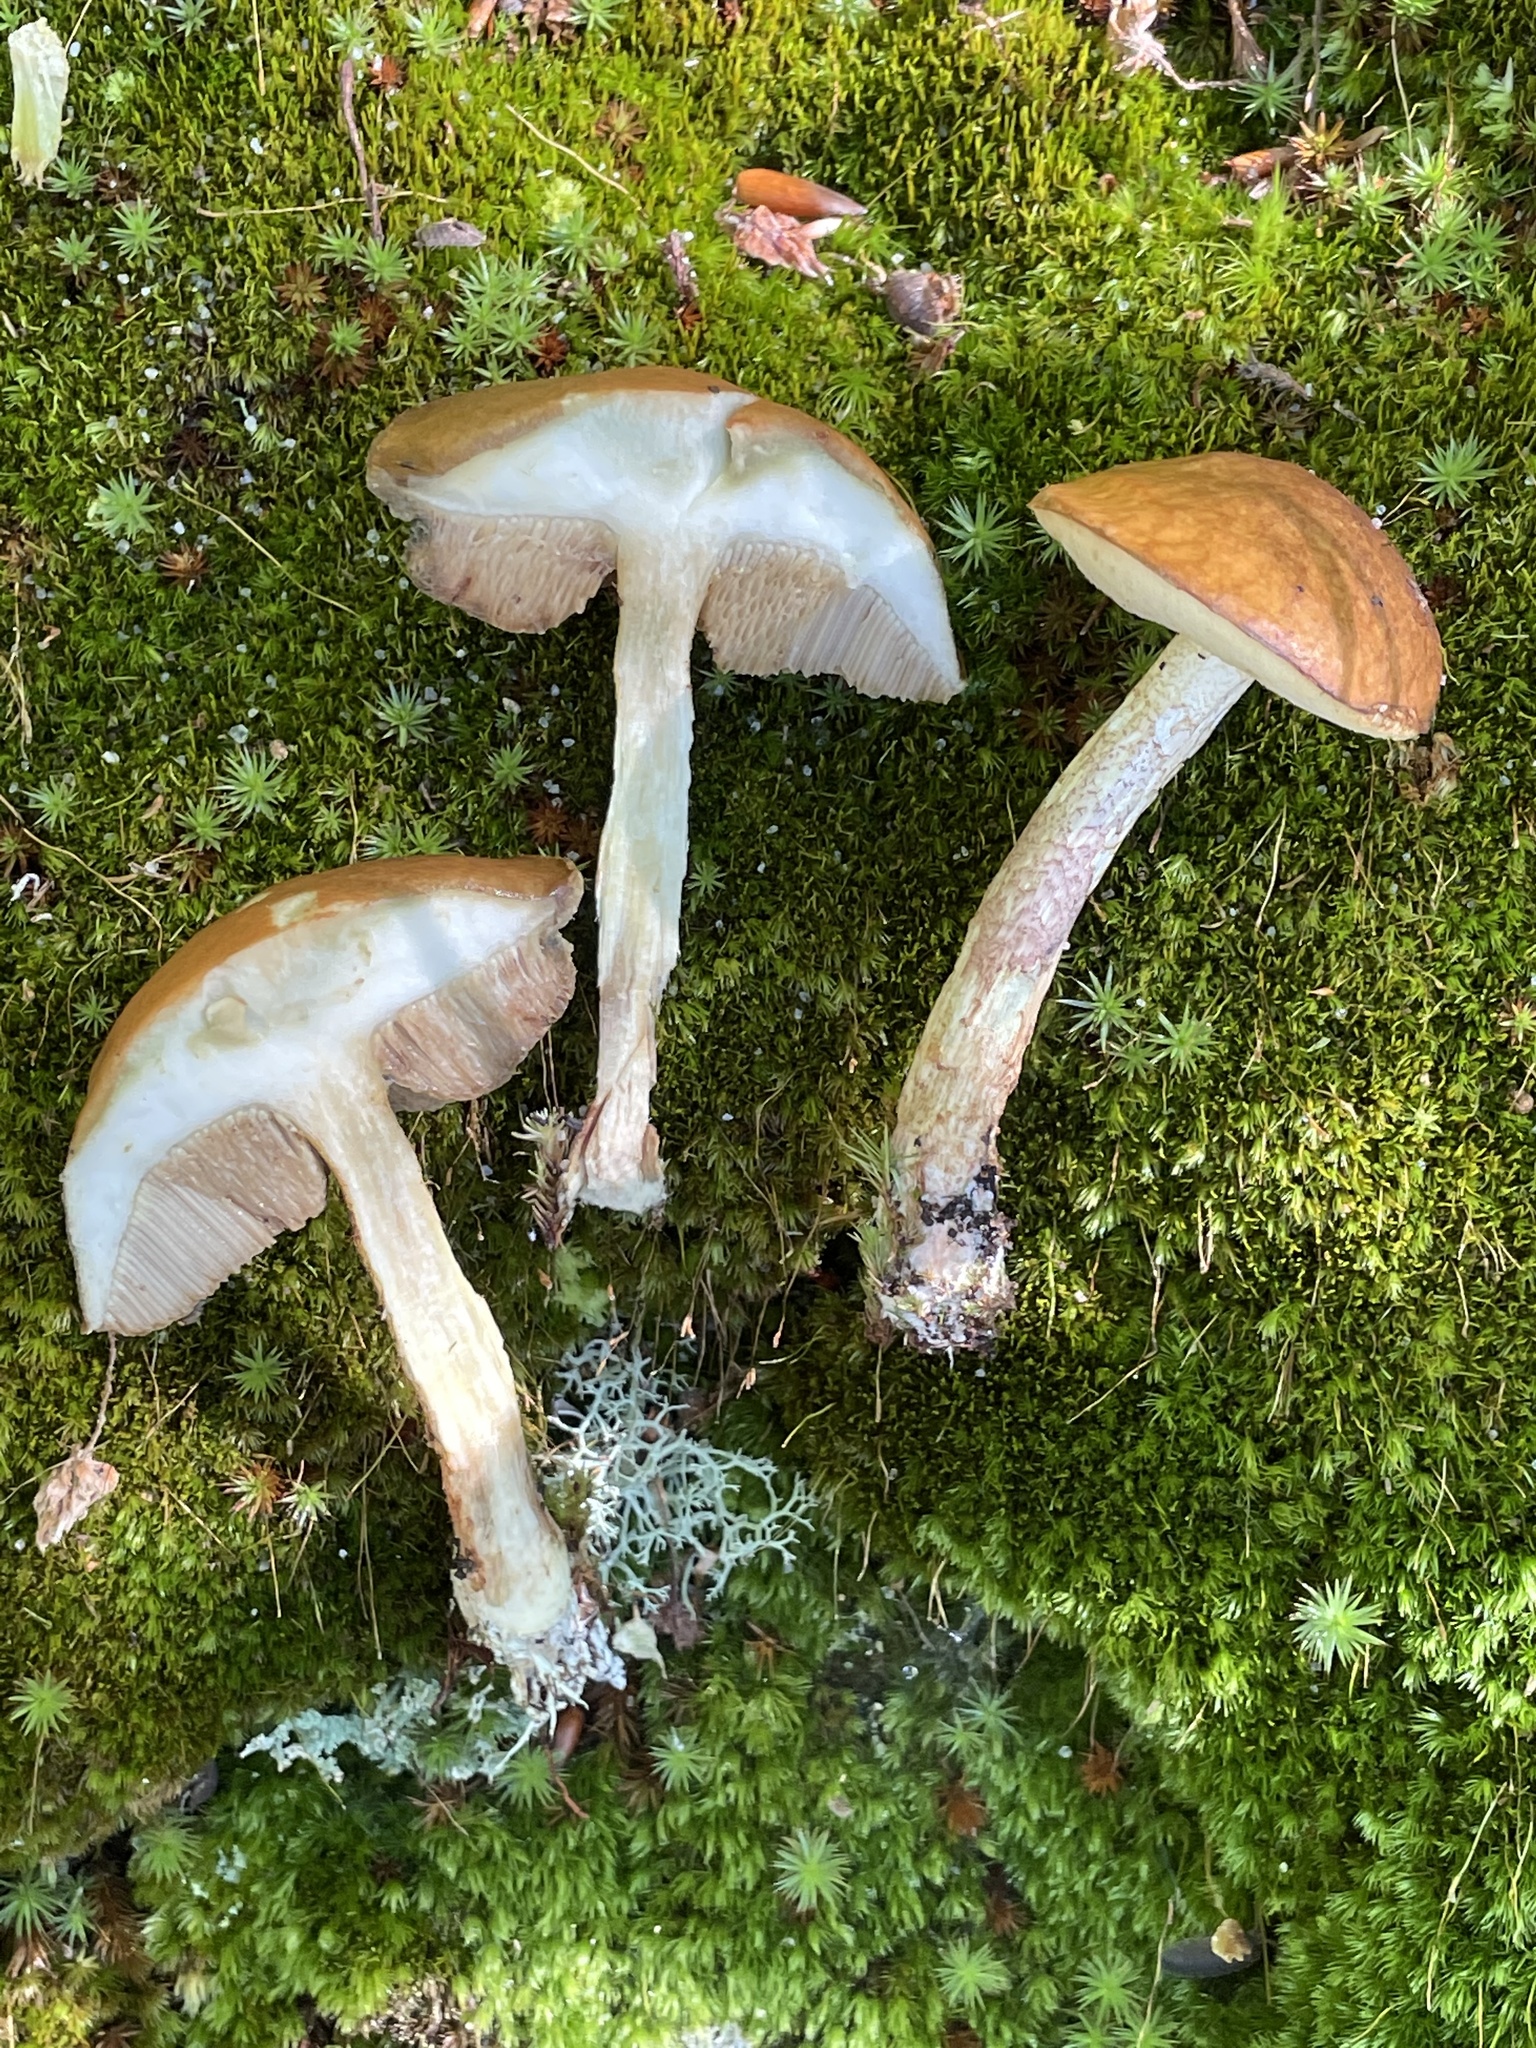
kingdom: Fungi
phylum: Basidiomycota
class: Agaricomycetes
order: Boletales
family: Boletaceae
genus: Leccinum
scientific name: Leccinum longicurvipes
